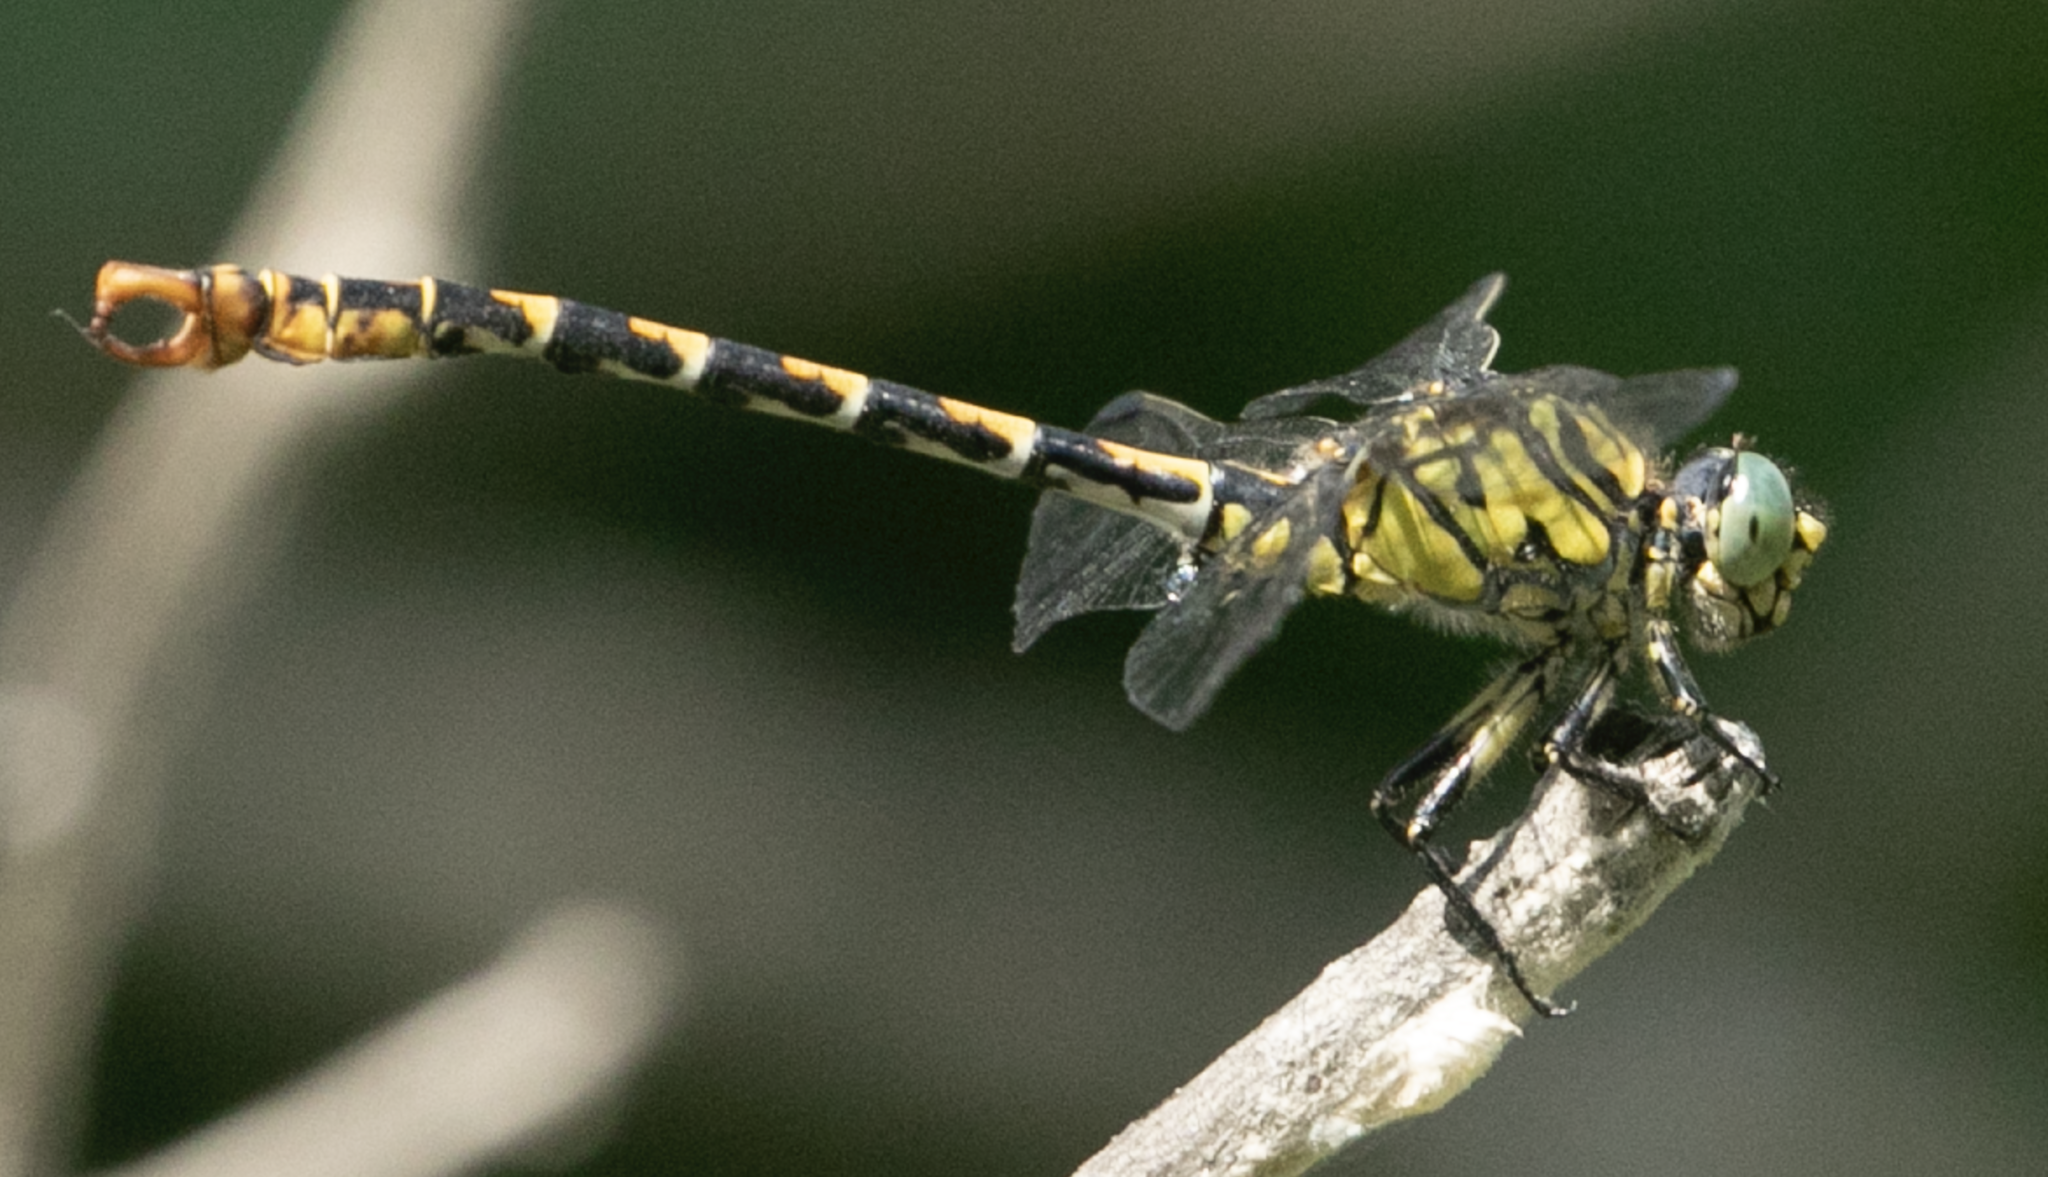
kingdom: Animalia
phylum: Arthropoda
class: Insecta
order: Odonata
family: Gomphidae
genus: Onychogomphus
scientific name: Onychogomphus forcipatus
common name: Small pincertail
